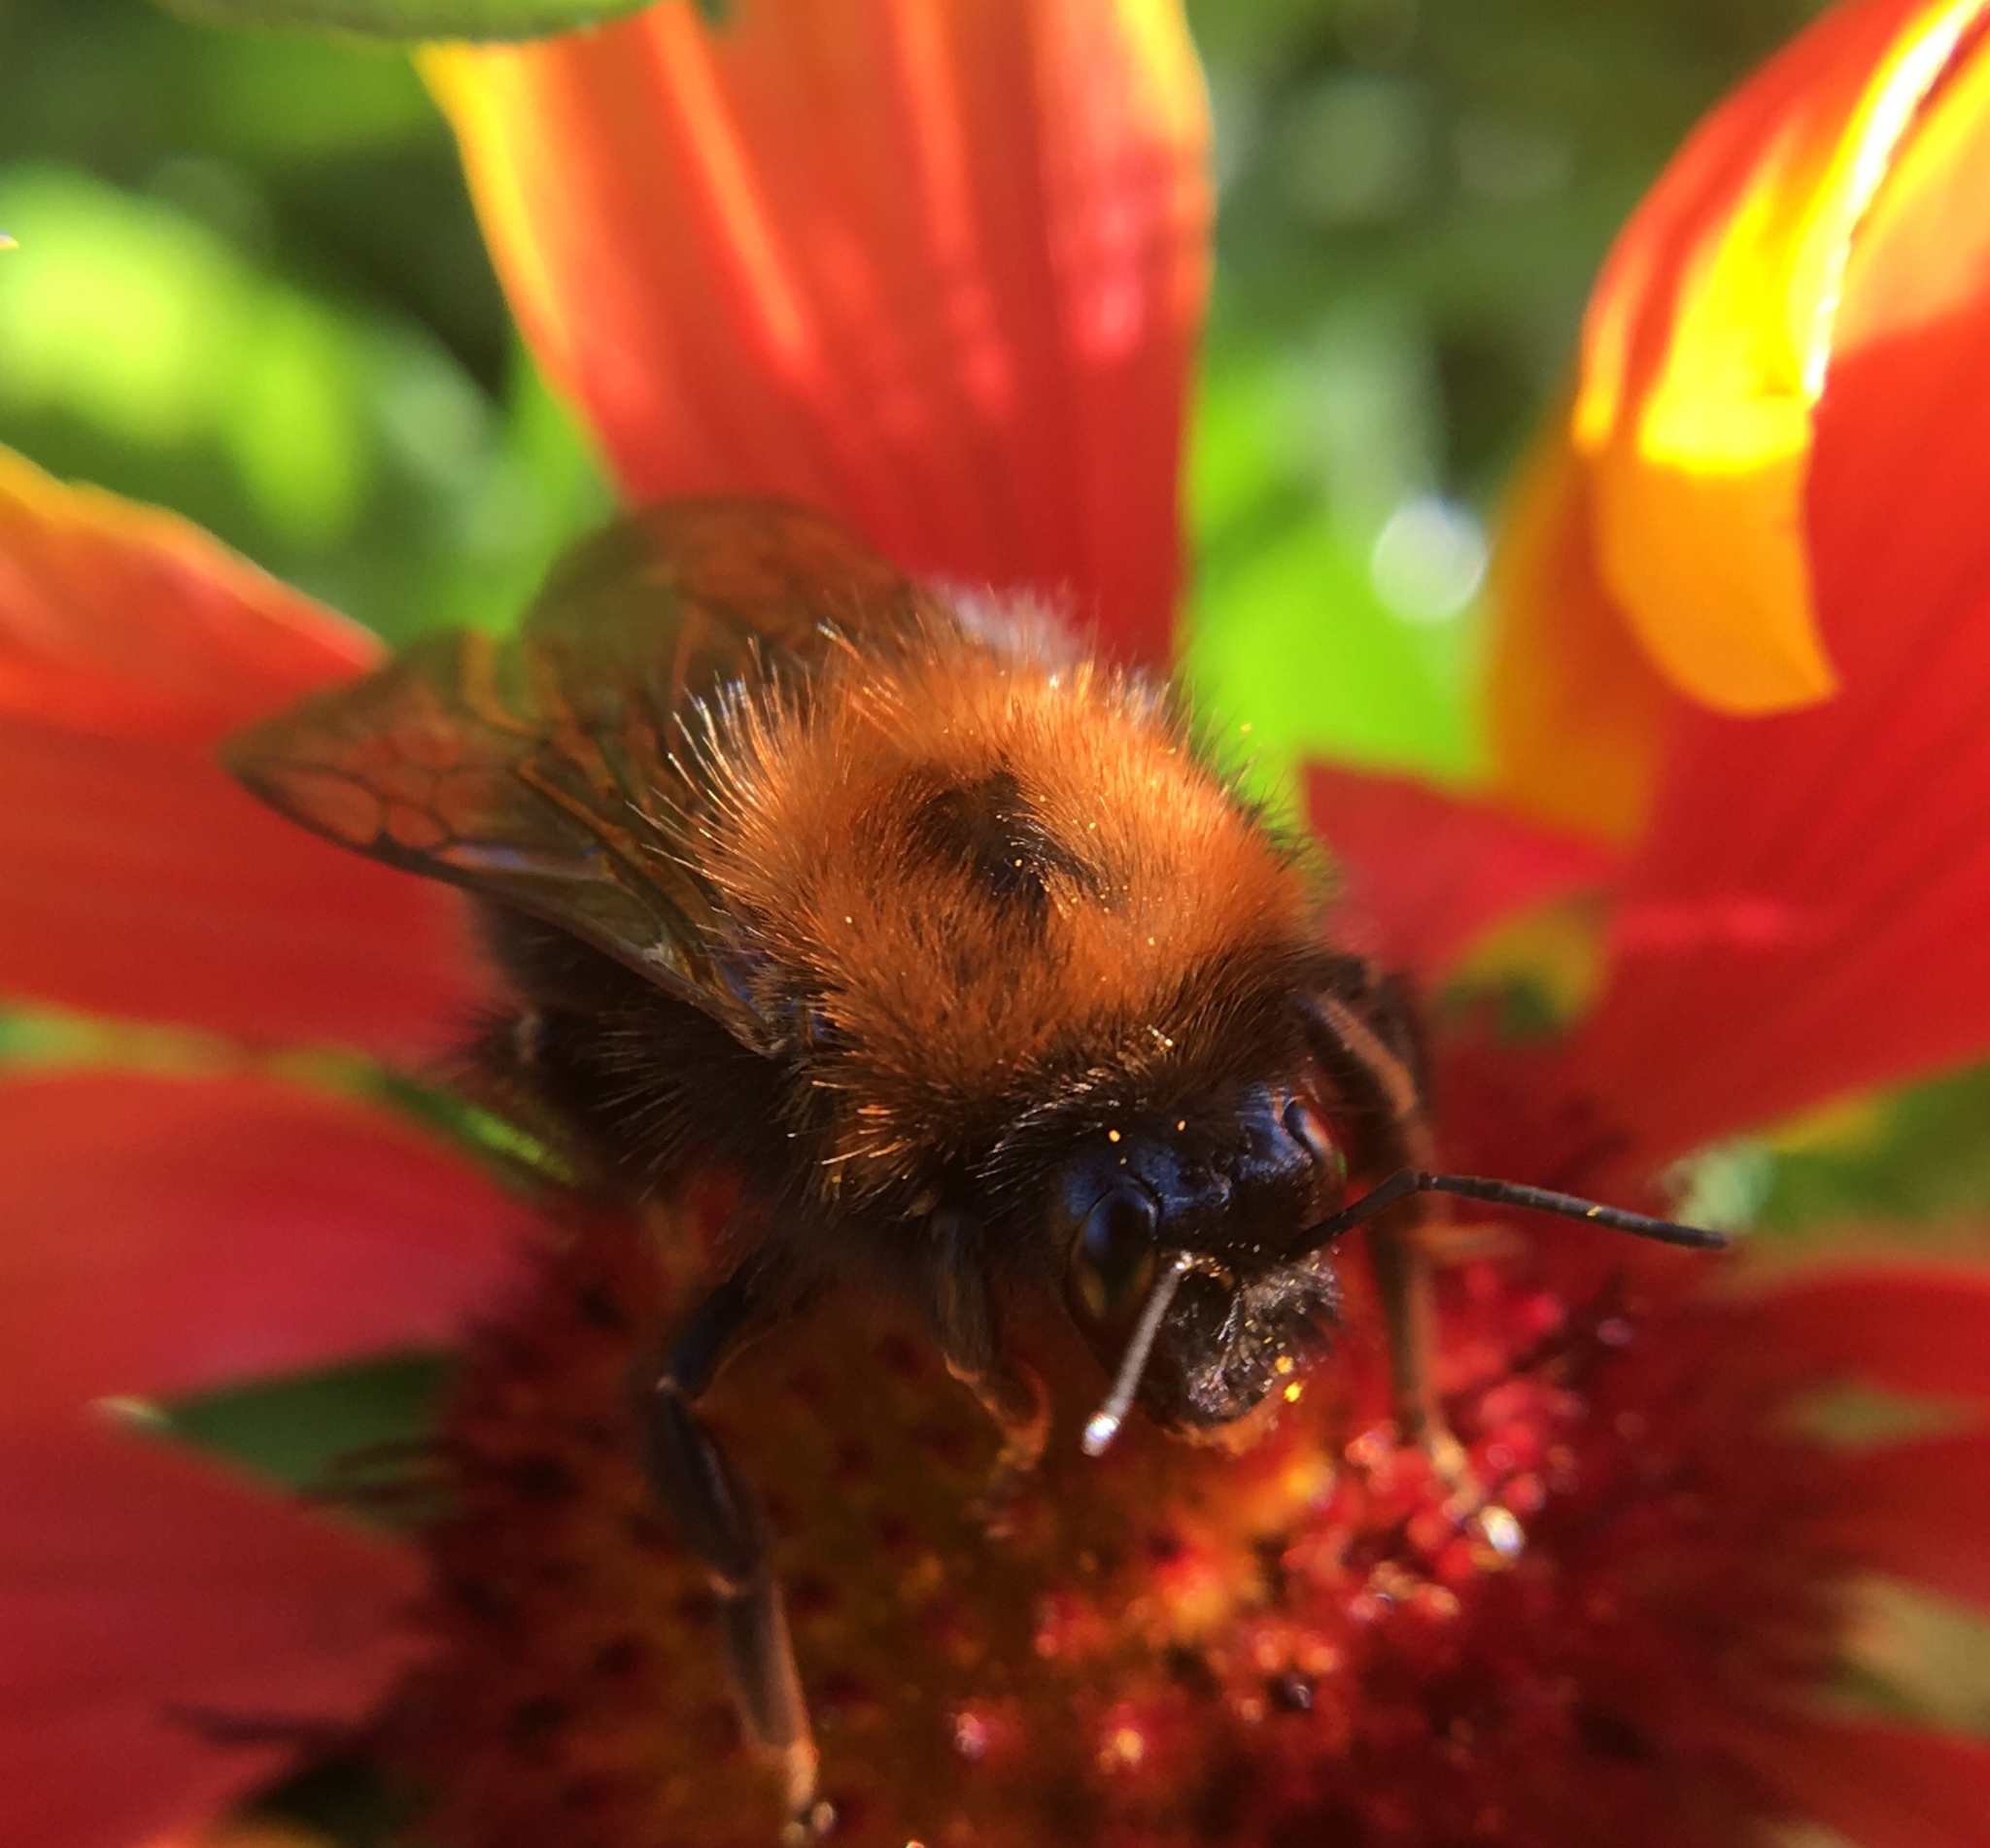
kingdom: Animalia
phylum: Arthropoda
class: Insecta
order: Hymenoptera
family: Apidae
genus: Bombus
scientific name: Bombus hypnorum
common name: New garden bumblebee
